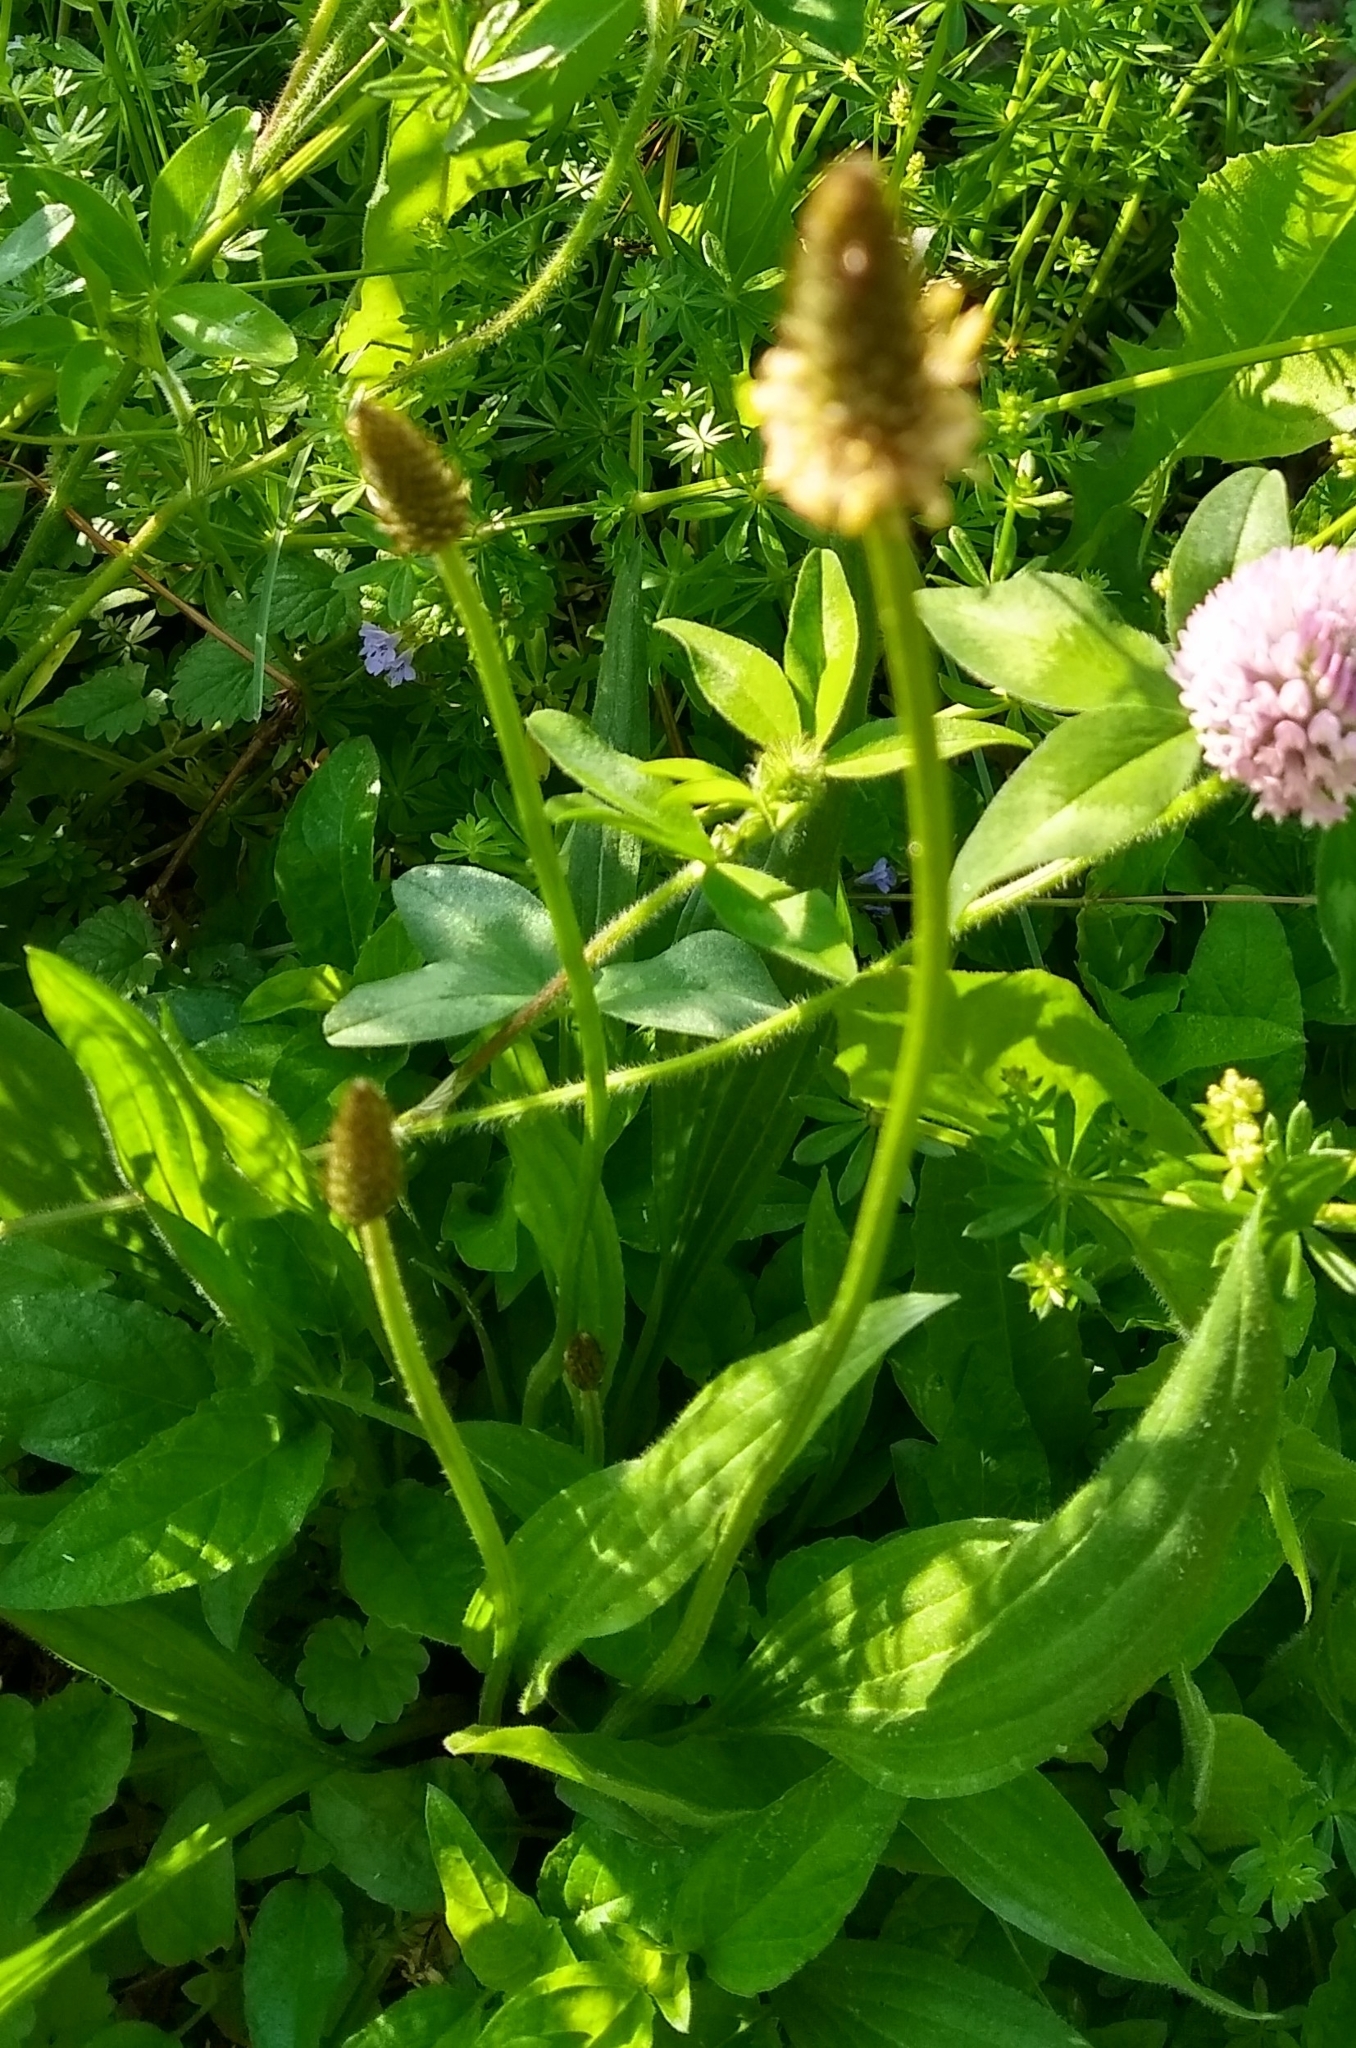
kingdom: Plantae
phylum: Tracheophyta
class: Magnoliopsida
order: Lamiales
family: Plantaginaceae
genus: Plantago
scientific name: Plantago lanceolata
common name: Ribwort plantain
